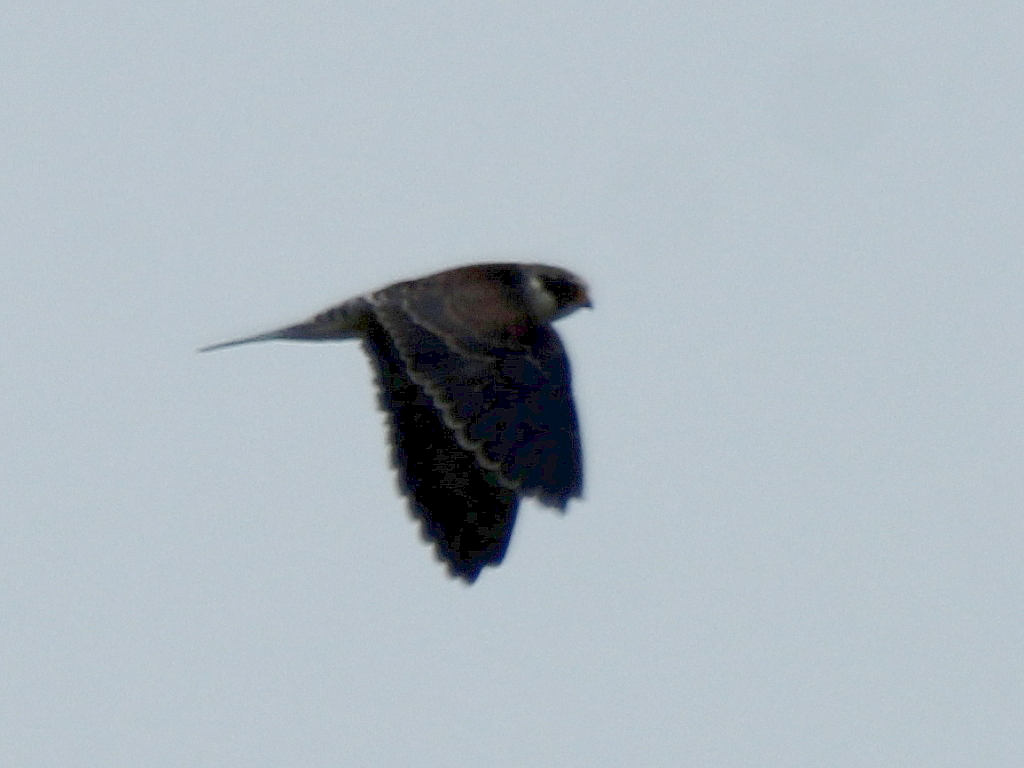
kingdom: Animalia
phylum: Chordata
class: Aves
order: Falconiformes
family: Falconidae
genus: Falco
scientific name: Falco amurensis
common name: Amur falcon
